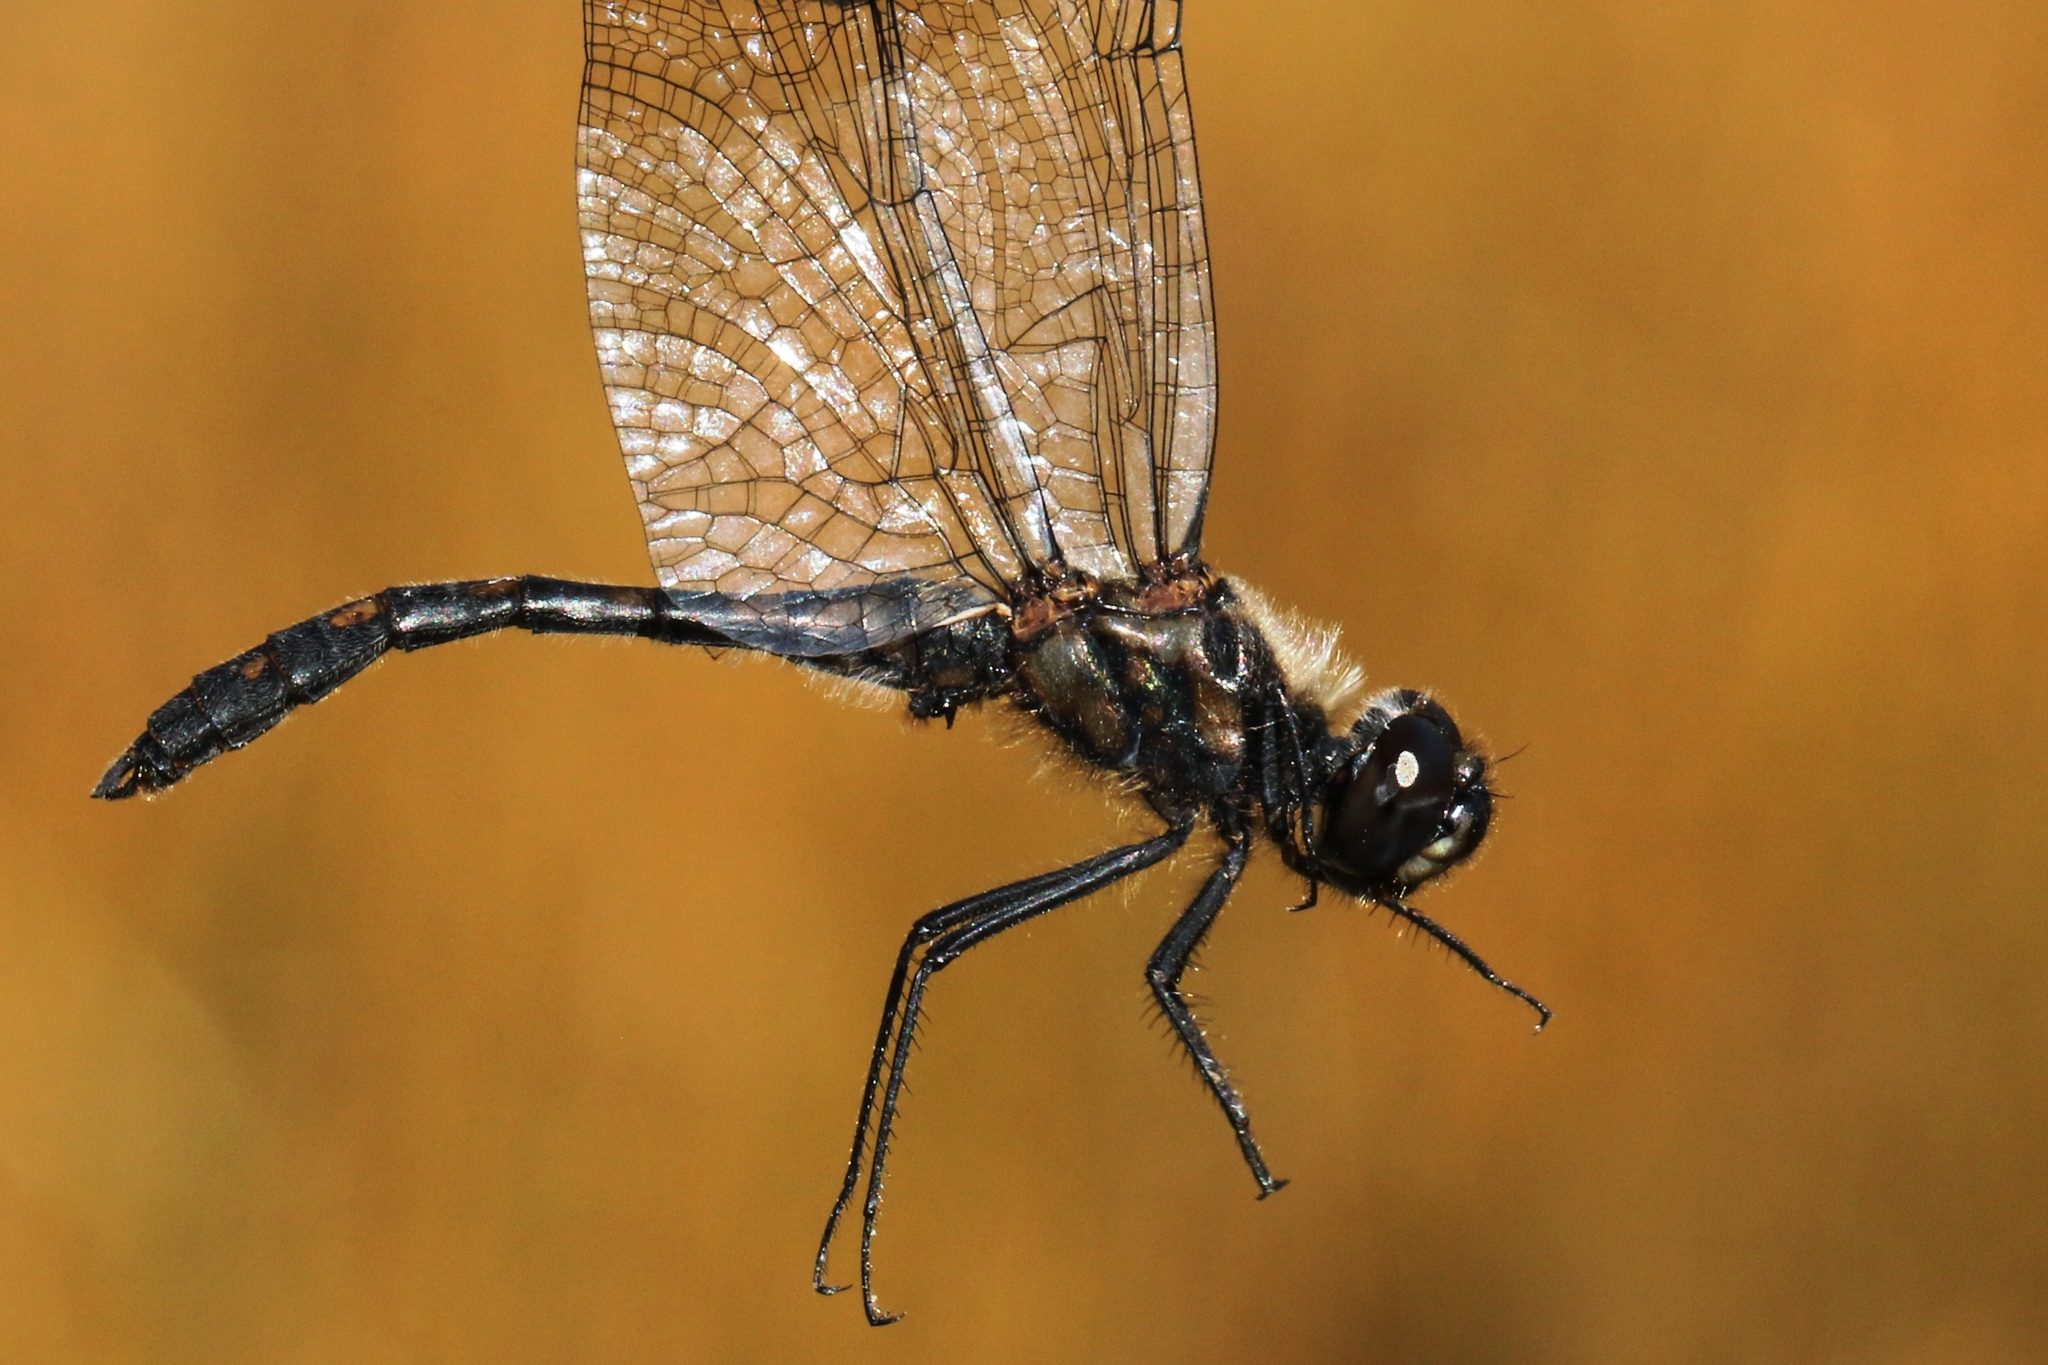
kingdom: Animalia
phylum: Arthropoda
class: Insecta
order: Odonata
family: Libellulidae
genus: Sympetrum
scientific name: Sympetrum danae
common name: Black darter
